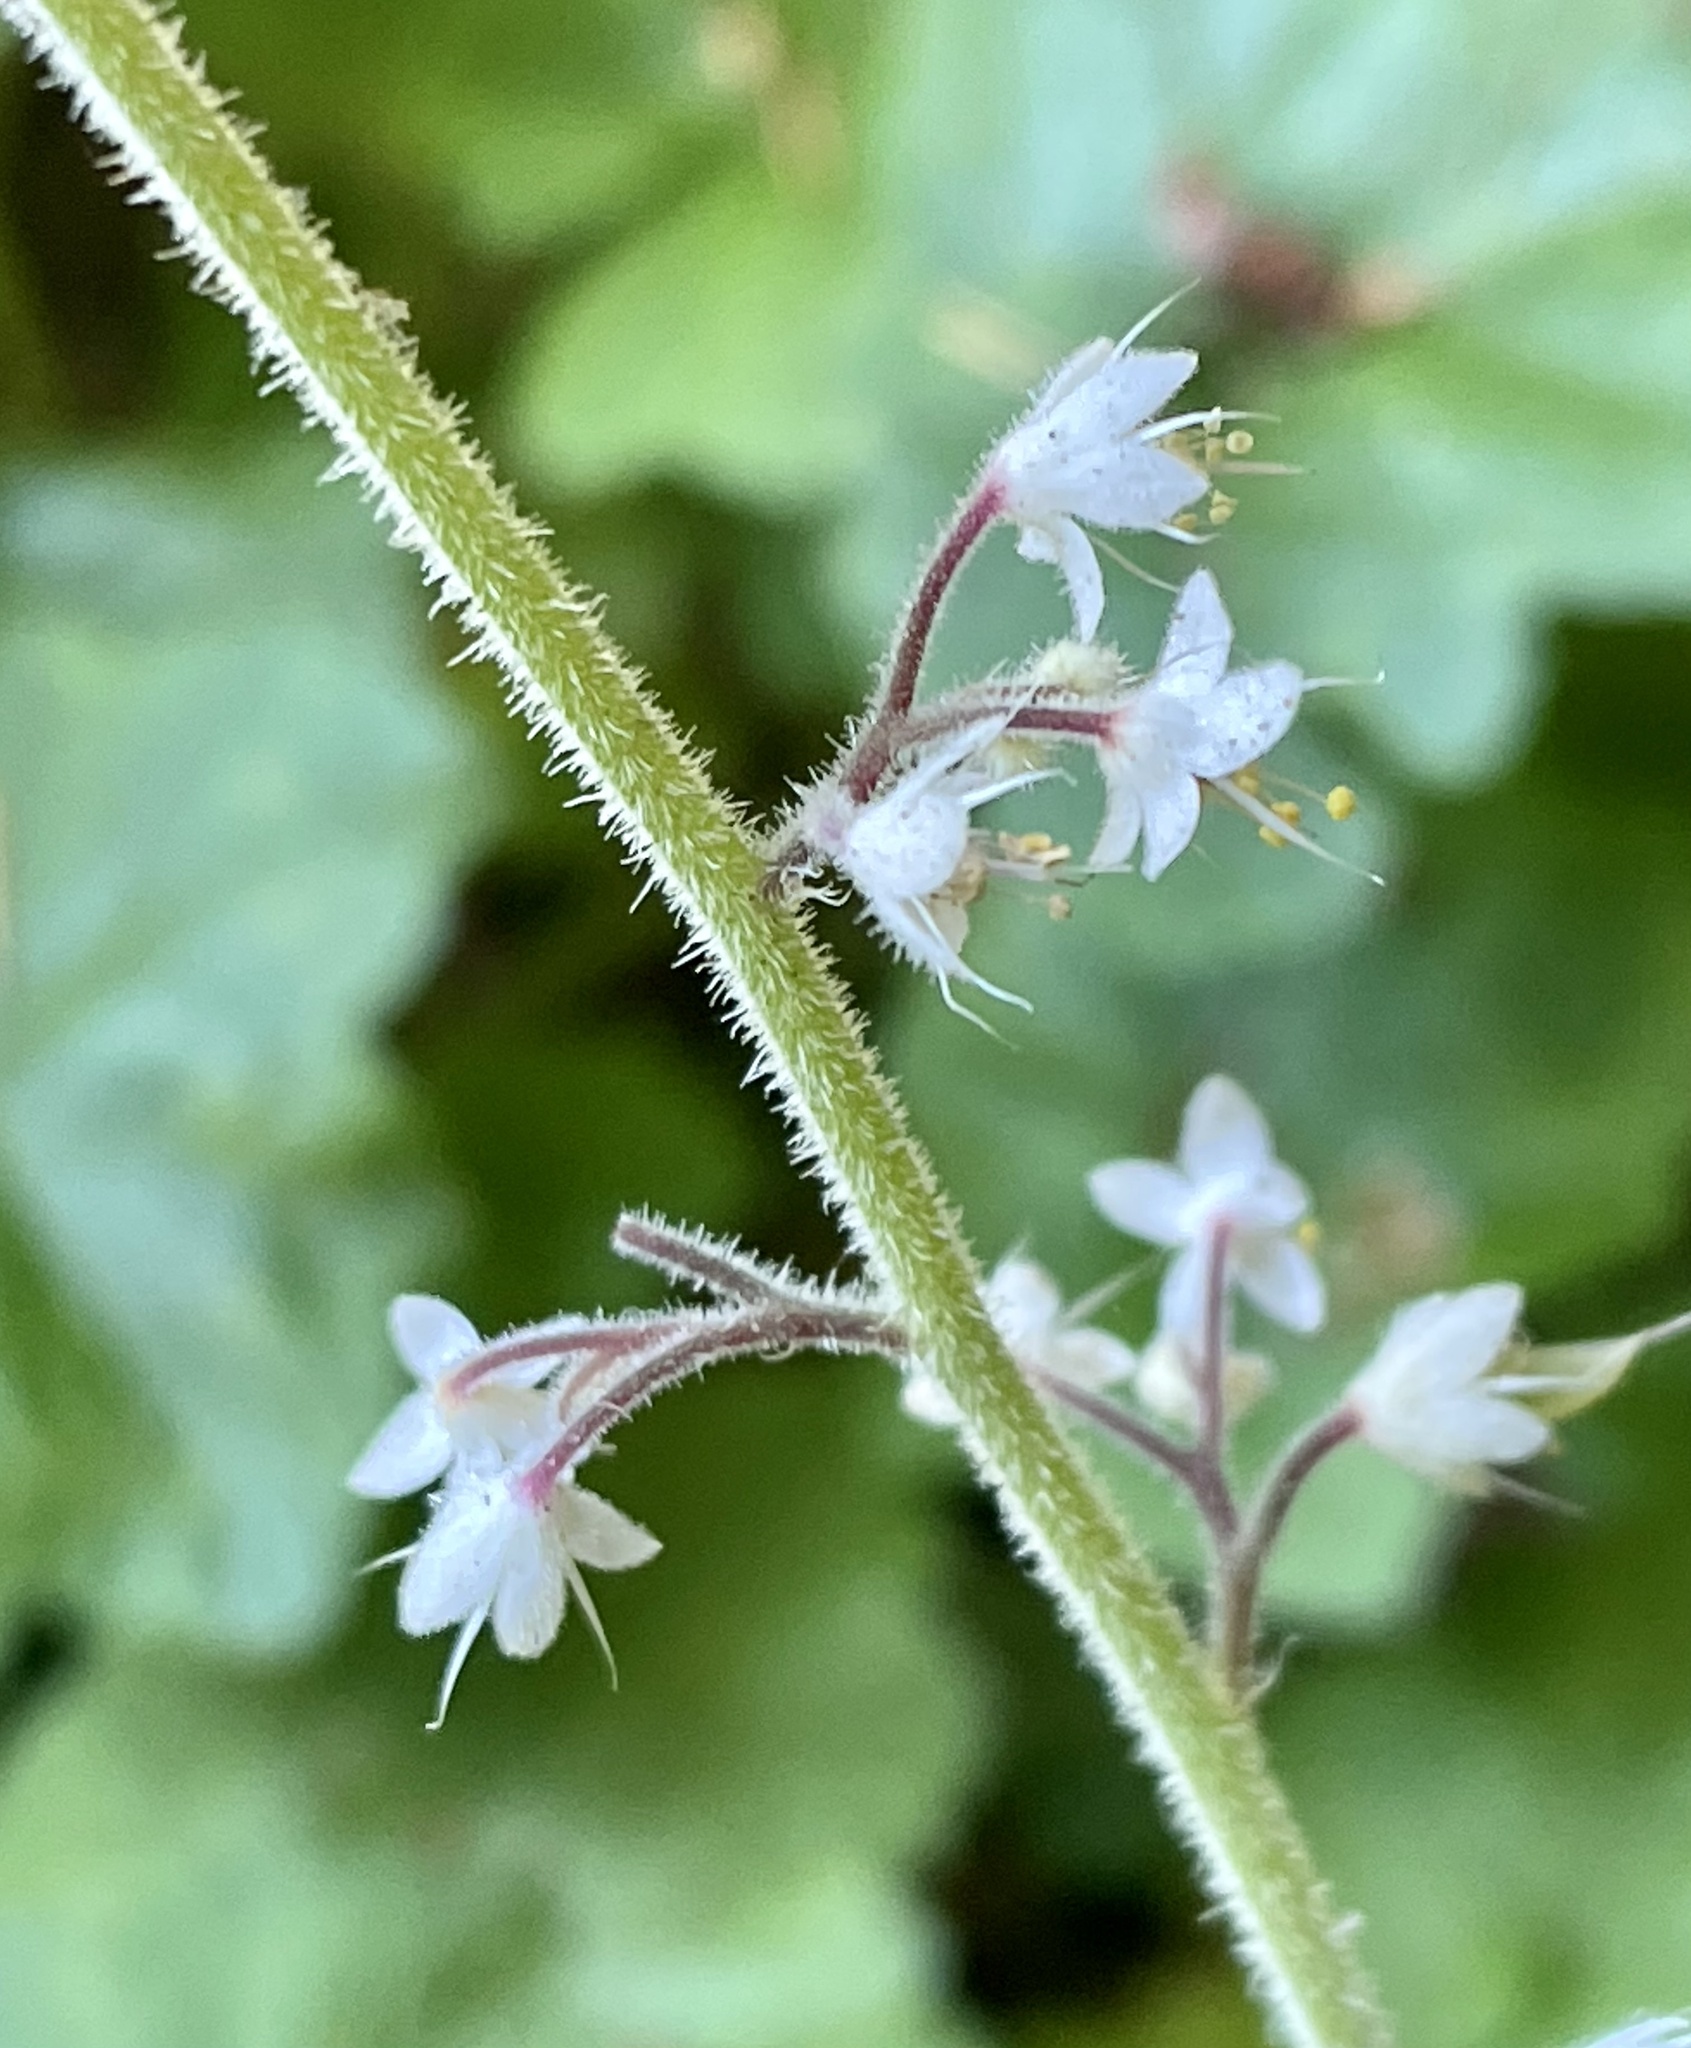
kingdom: Plantae
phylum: Tracheophyta
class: Magnoliopsida
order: Saxifragales
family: Saxifragaceae
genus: Tiarella
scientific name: Tiarella trifoliata
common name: Sugar-scoop
